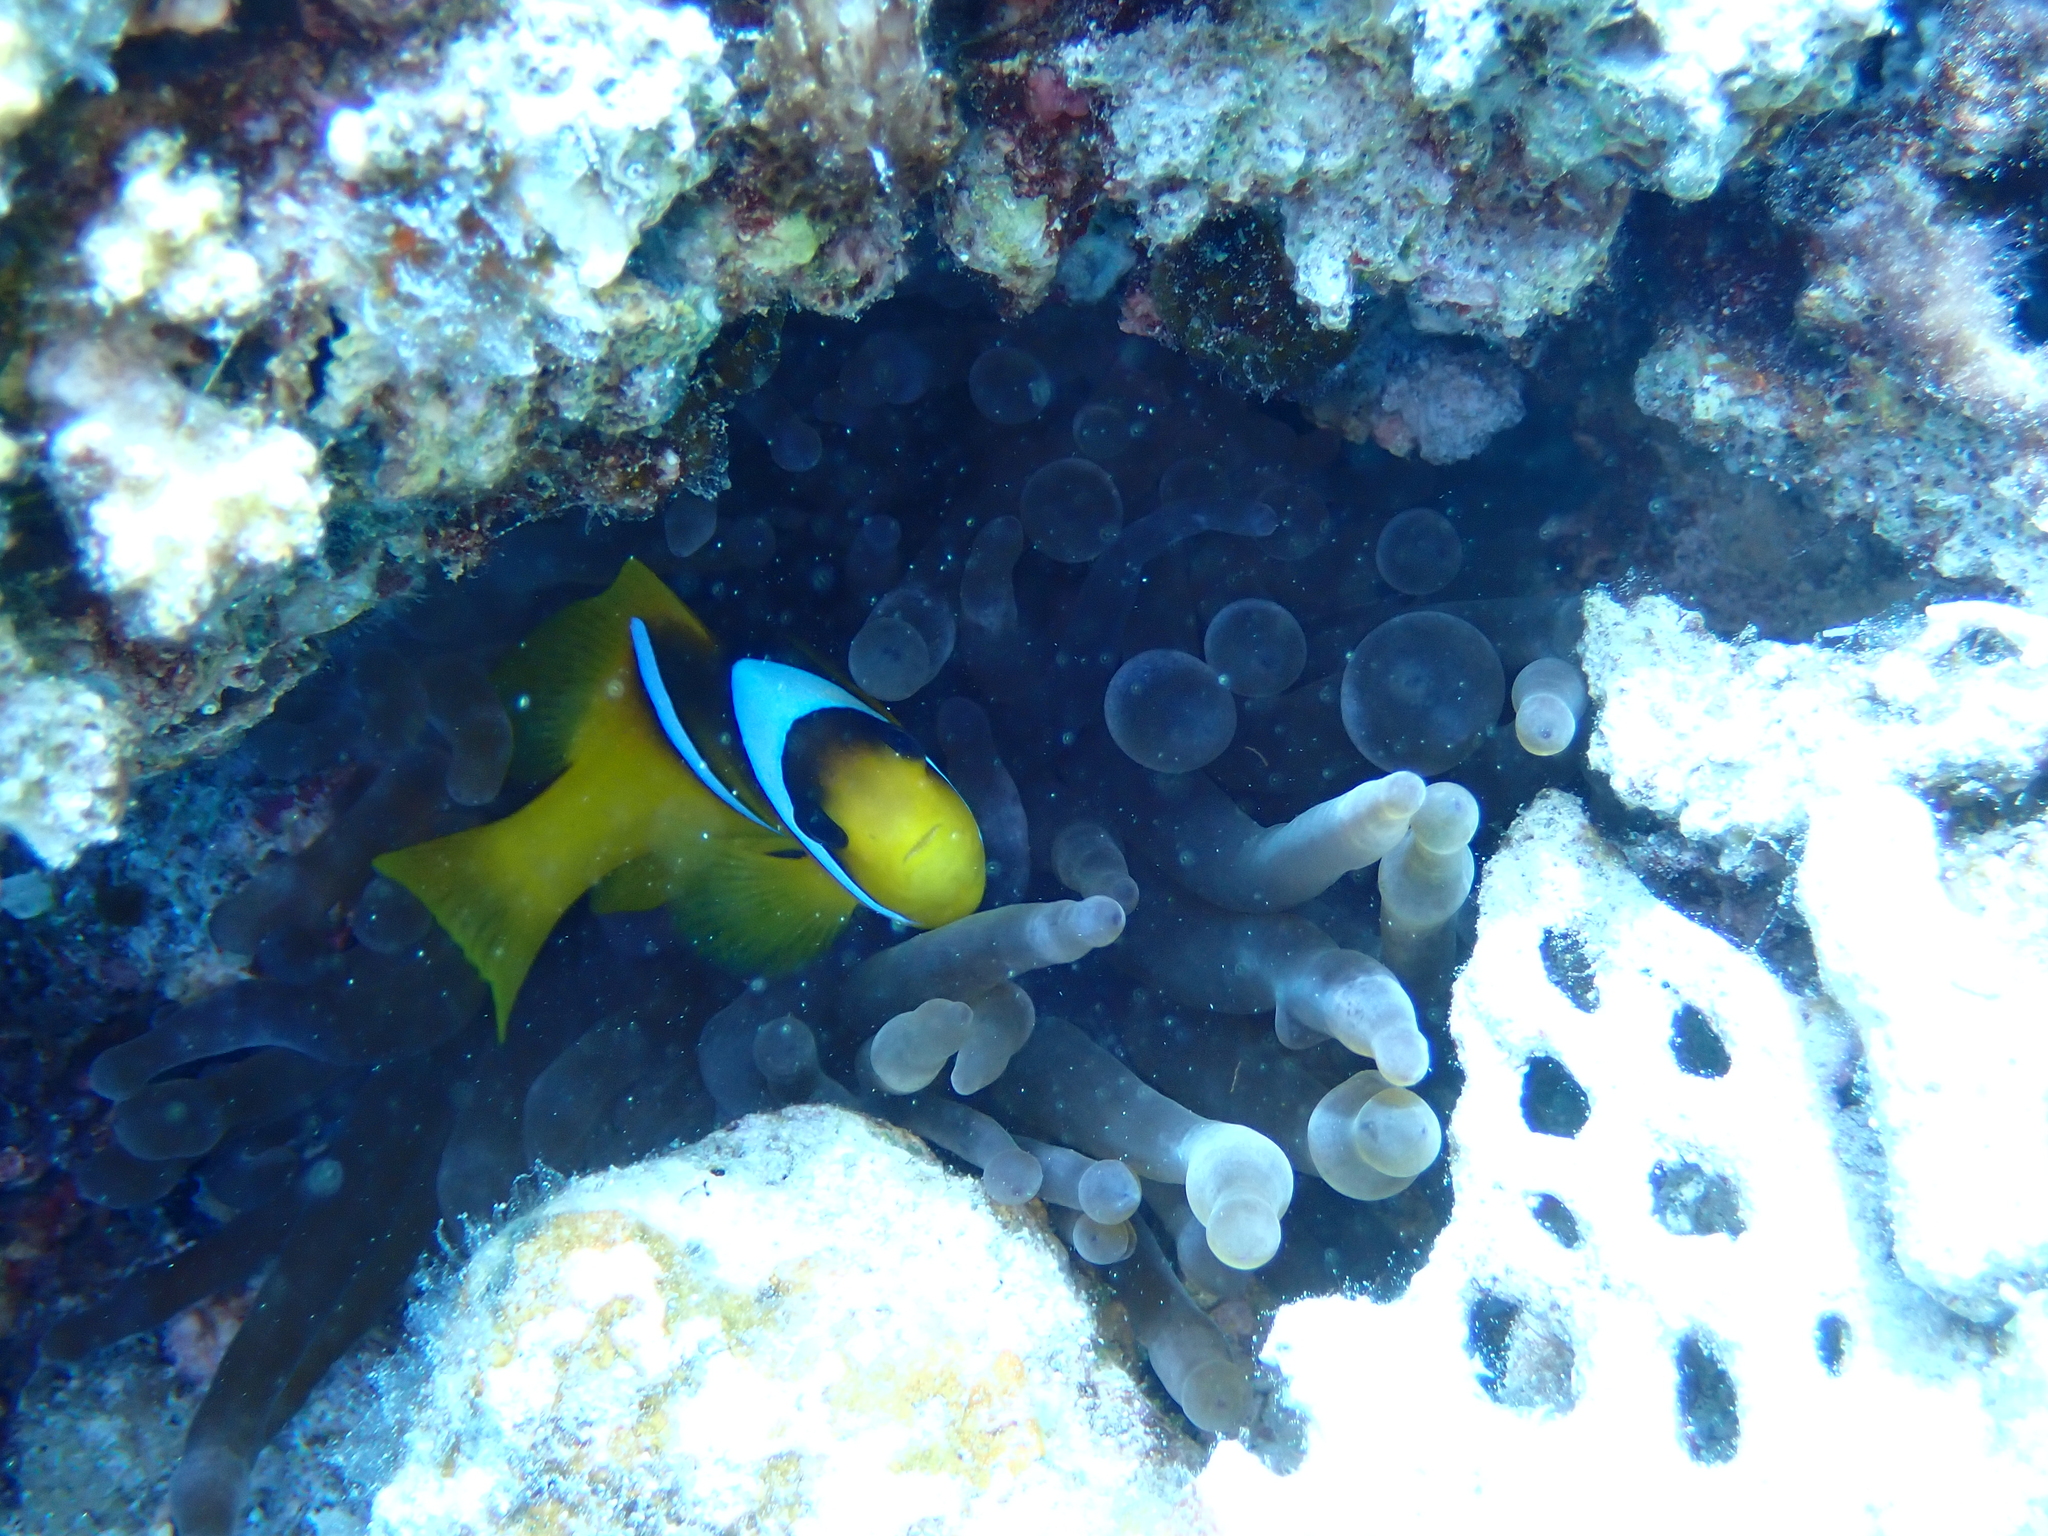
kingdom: Animalia
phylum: Chordata
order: Perciformes
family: Pomacentridae
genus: Amphiprion
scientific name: Amphiprion bicinctus
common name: Two-banded anemonefish
